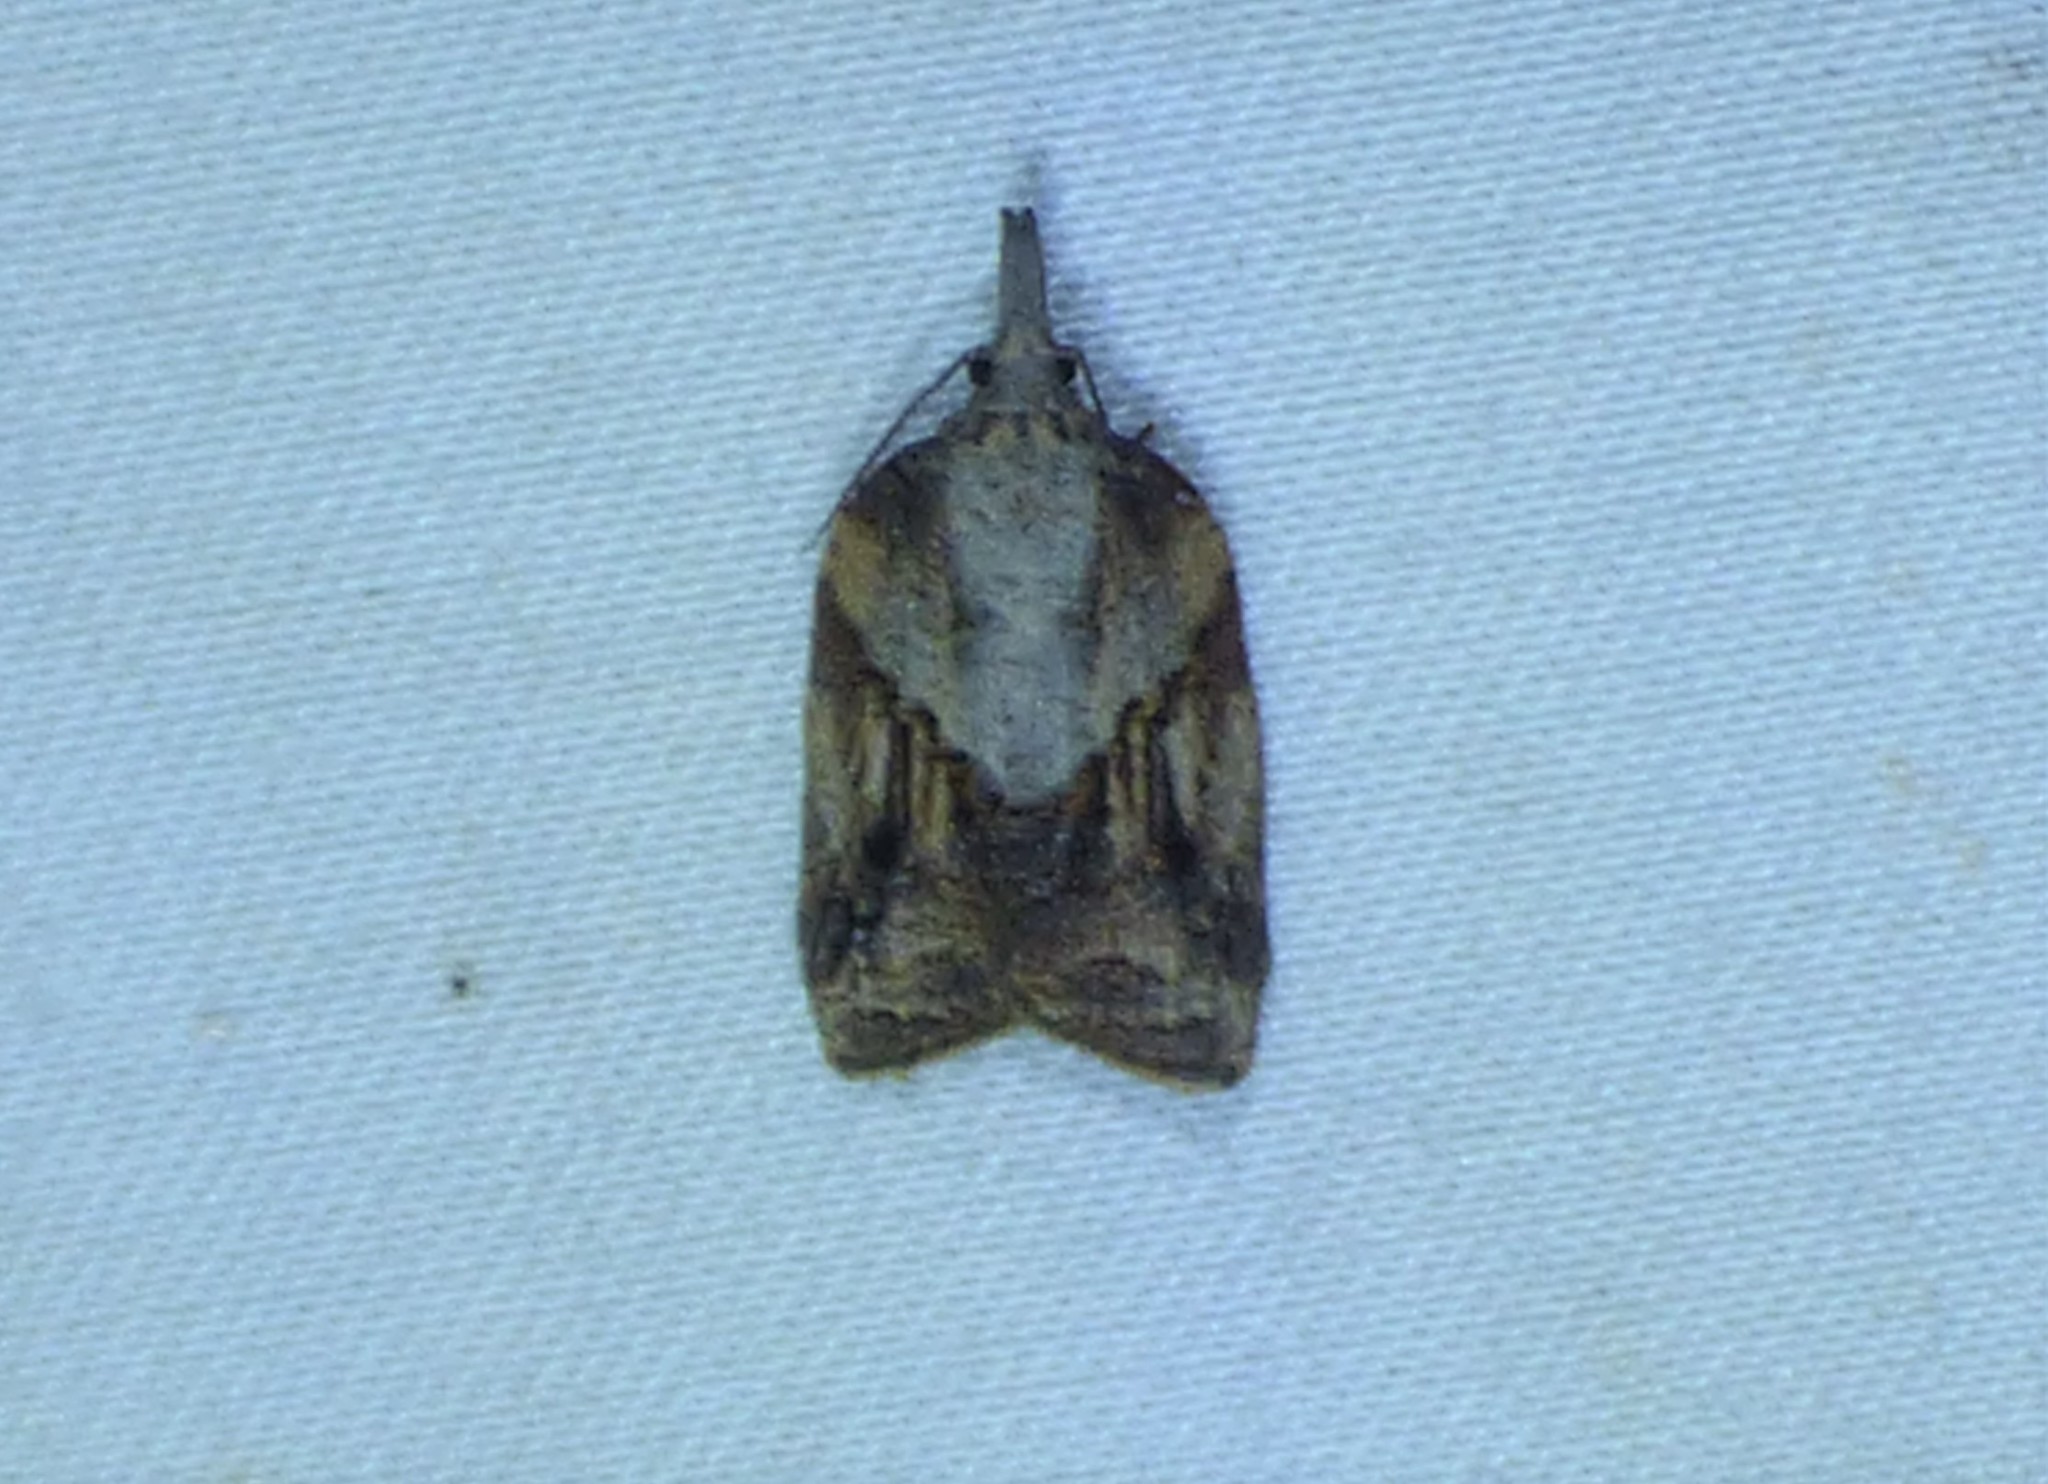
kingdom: Animalia
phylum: Arthropoda
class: Insecta
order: Lepidoptera
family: Tortricidae
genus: Platynota
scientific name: Platynota idaeusalis
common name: Tufted apple bud moth
